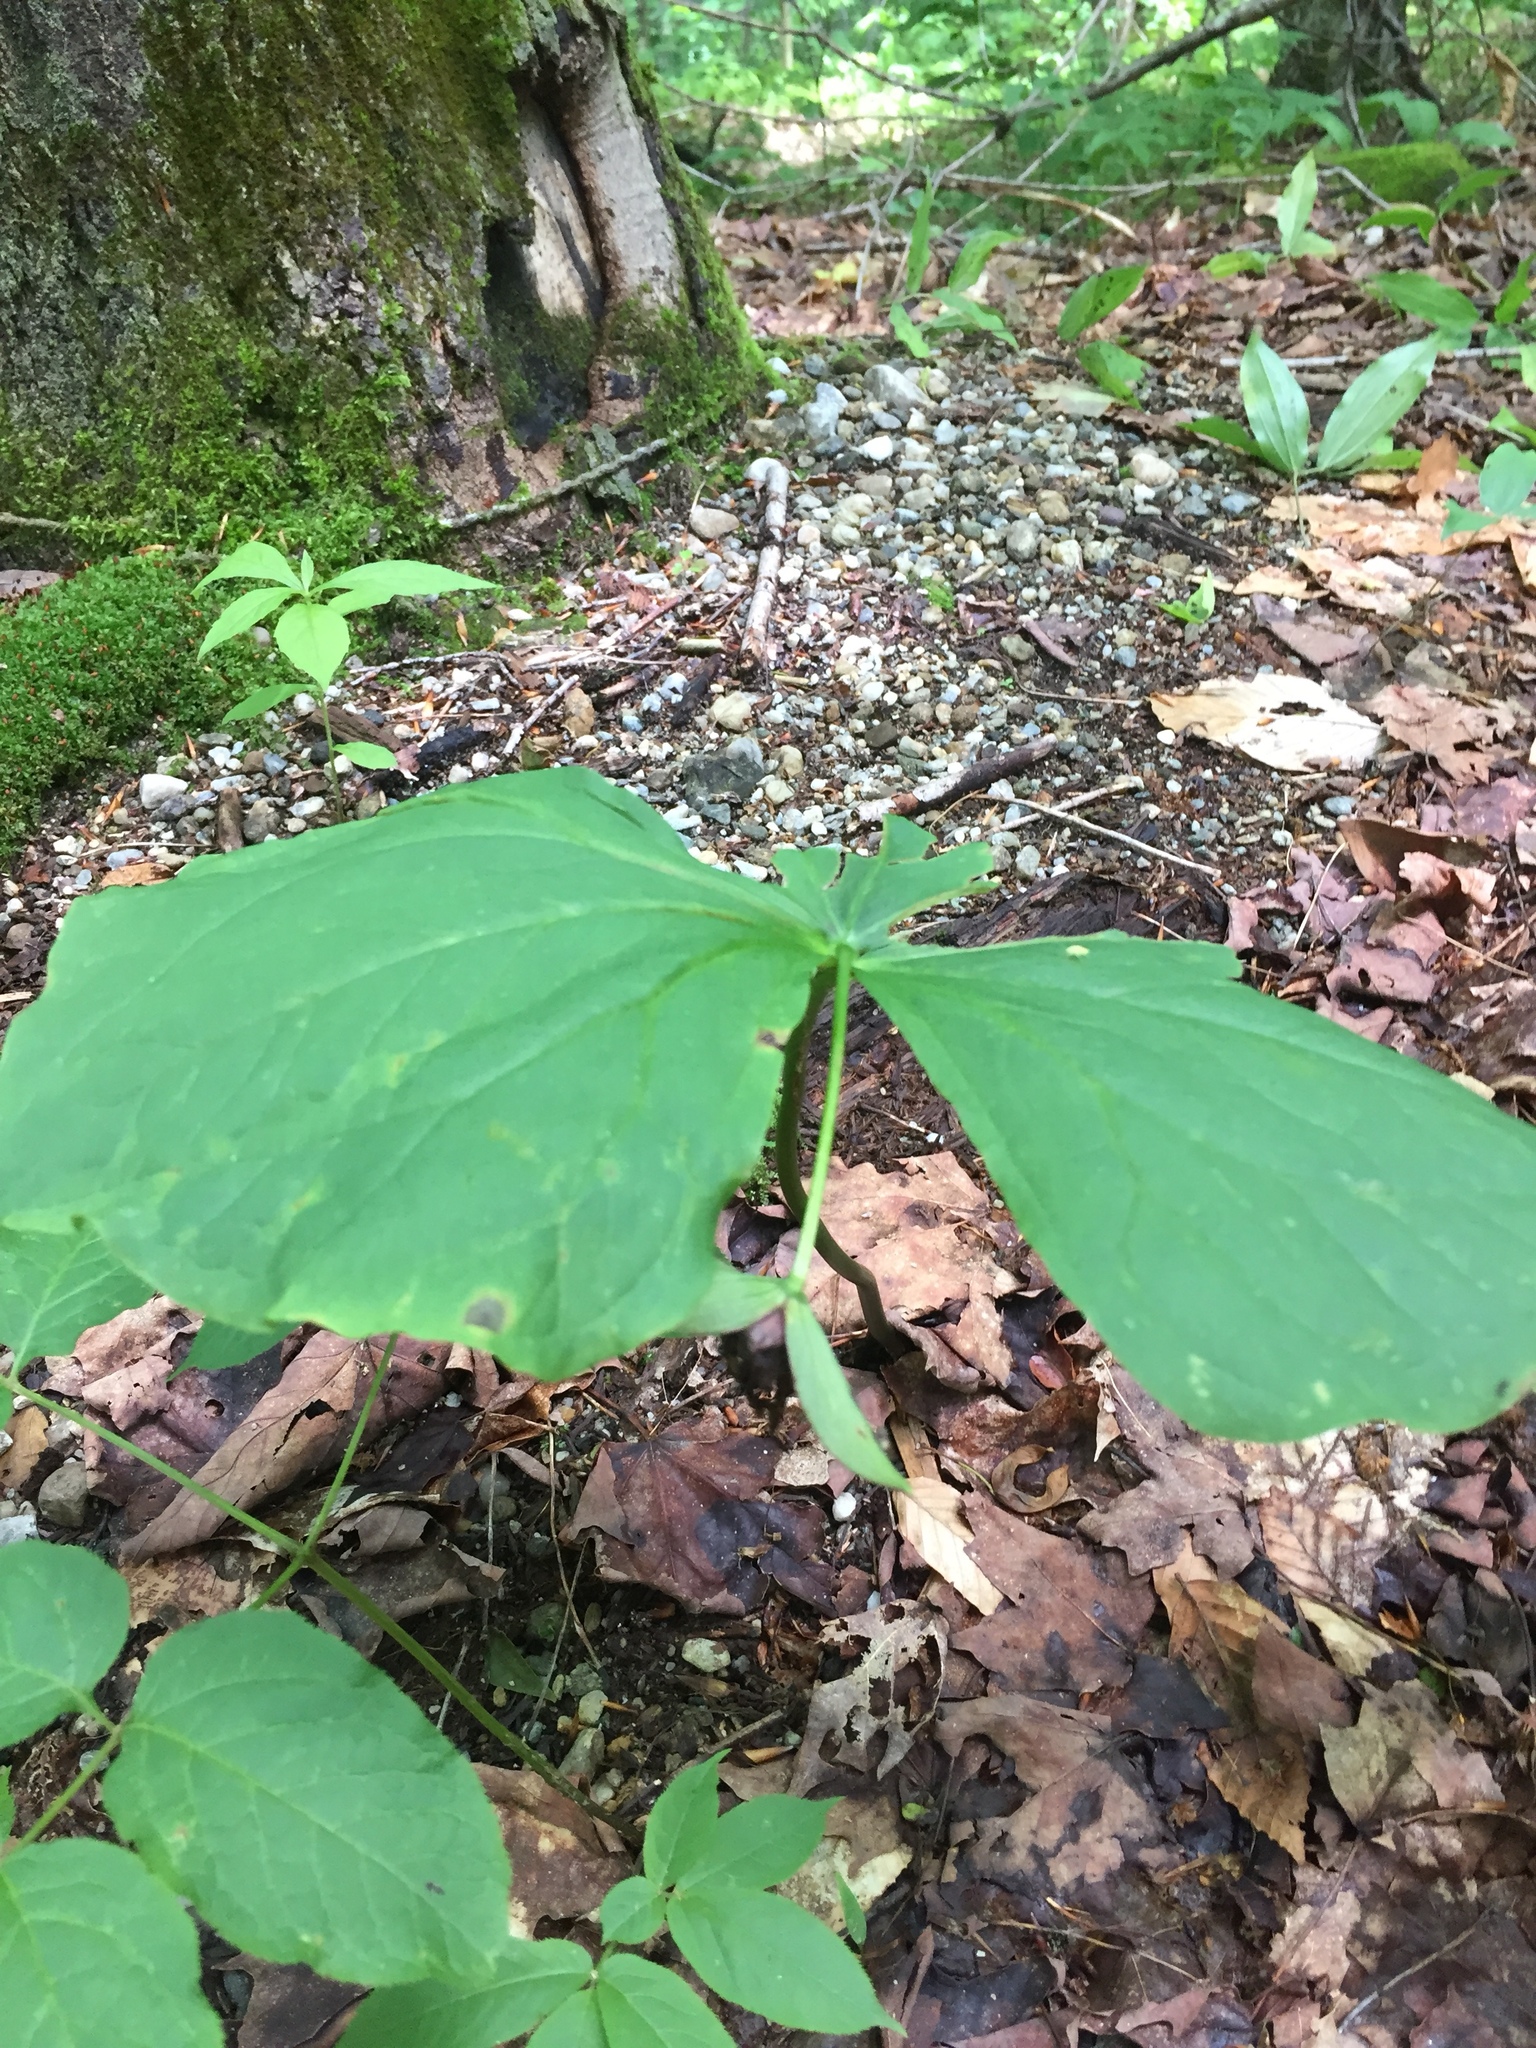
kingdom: Plantae
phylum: Tracheophyta
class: Liliopsida
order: Liliales
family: Melanthiaceae
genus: Trillium
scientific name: Trillium erectum
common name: Purple trillium
